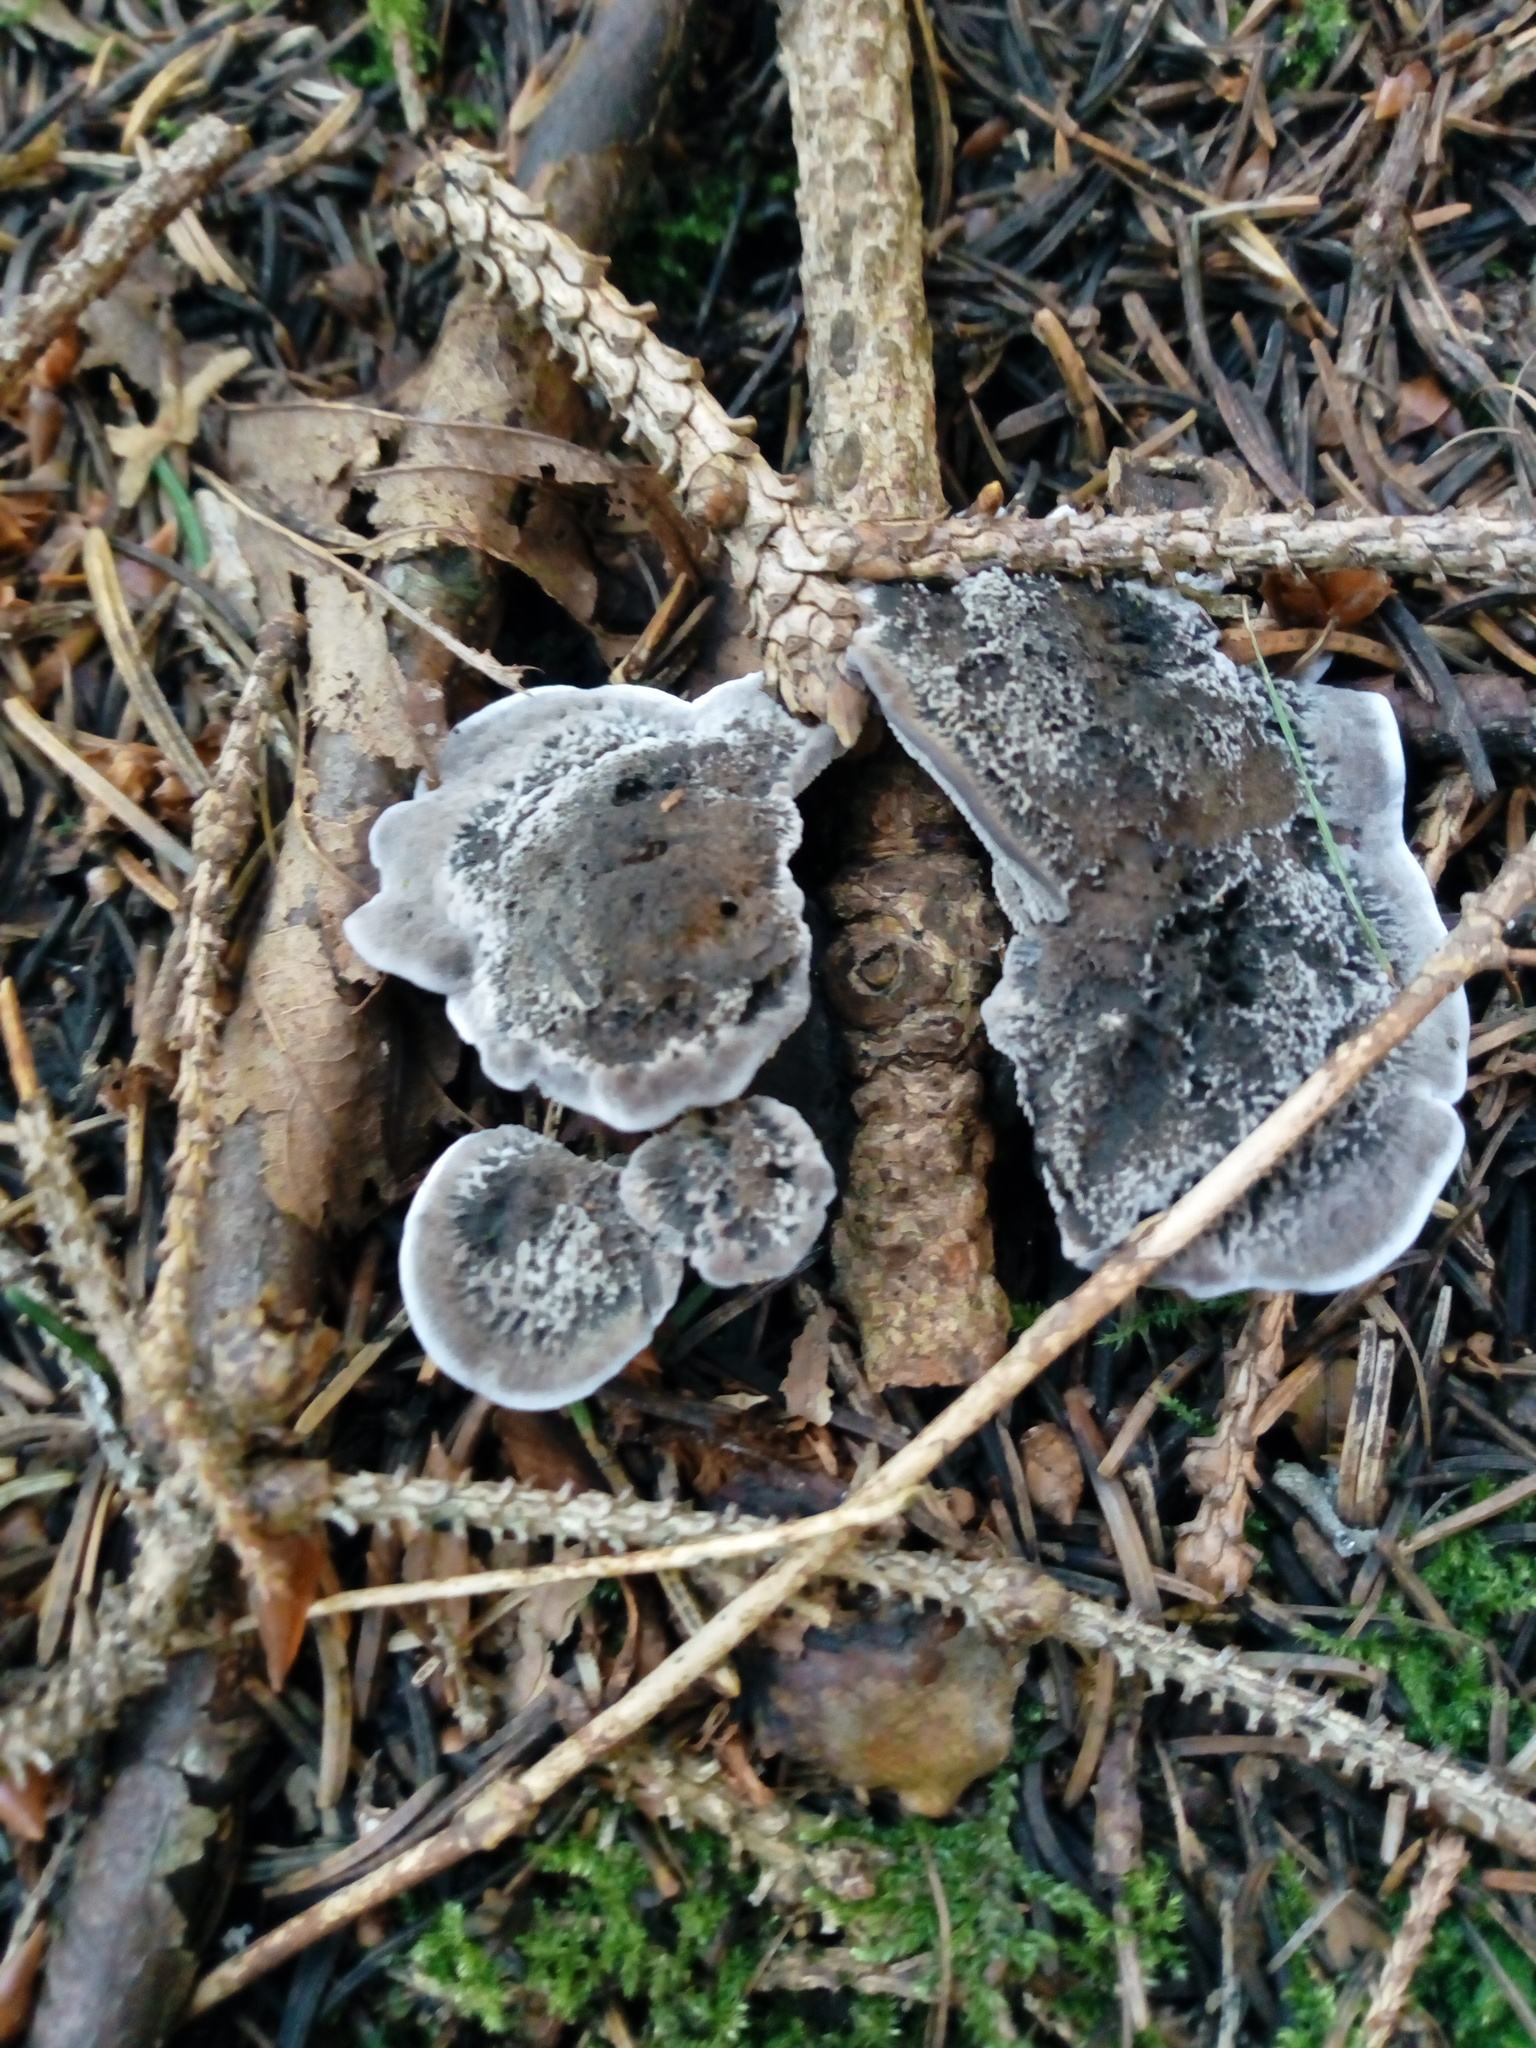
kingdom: Fungi
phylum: Basidiomycota
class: Agaricomycetes
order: Thelephorales
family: Thelephoraceae
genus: Phellodon
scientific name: Phellodon niger
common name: Black tooth
